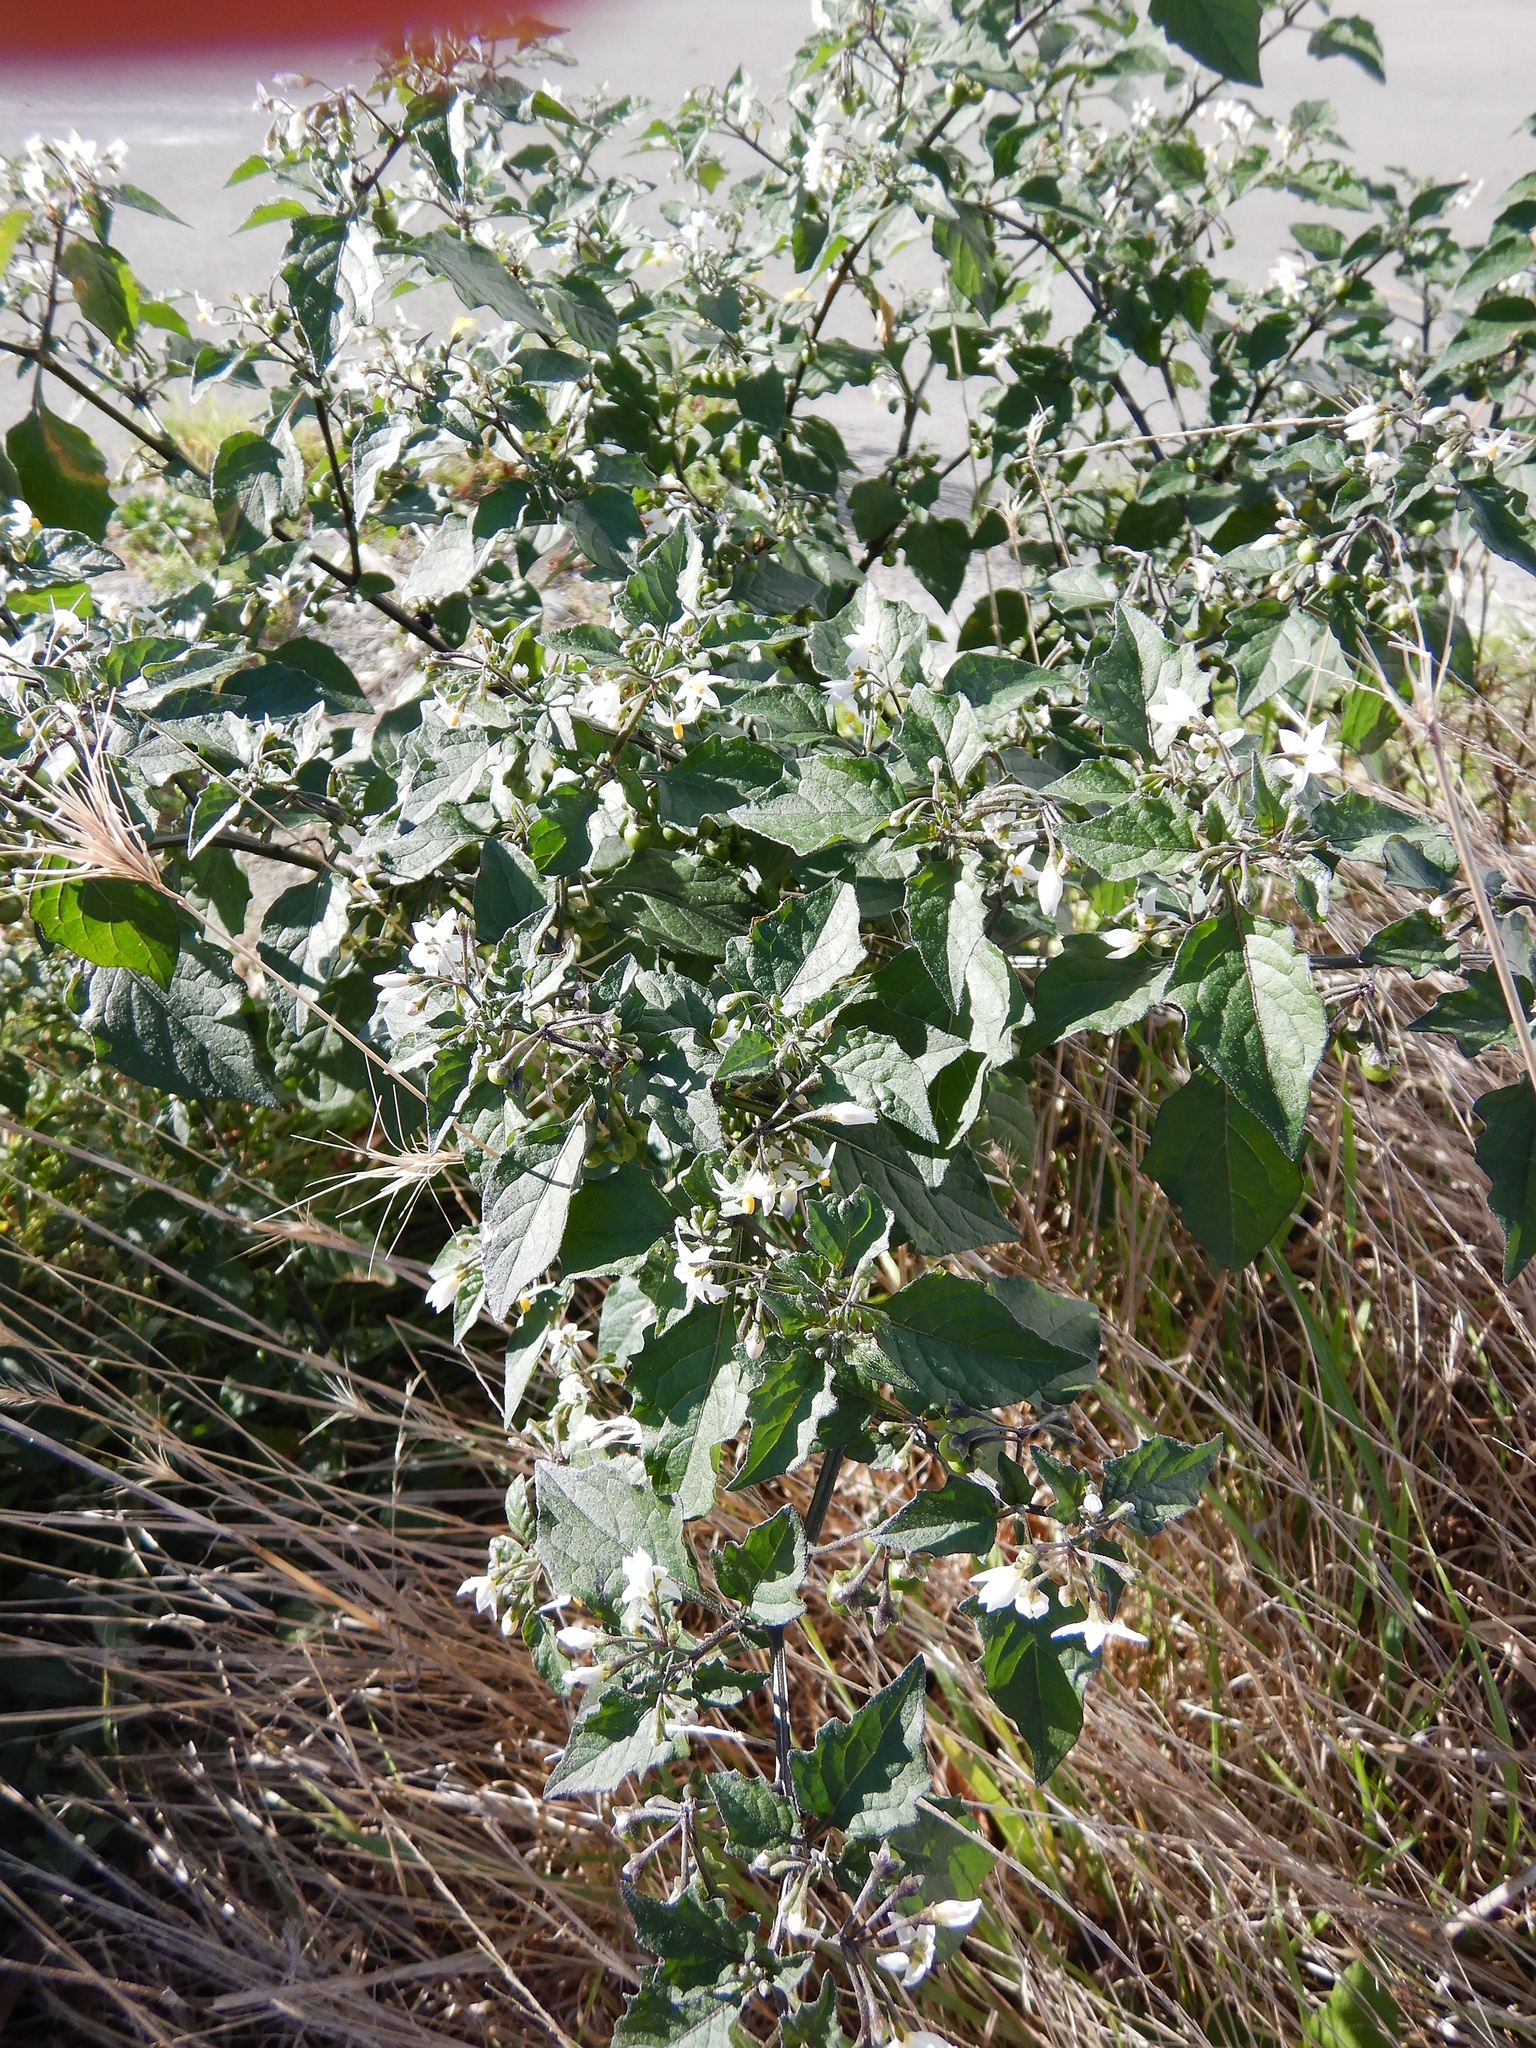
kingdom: Plantae
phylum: Tracheophyta
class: Magnoliopsida
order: Solanales
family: Solanaceae
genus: Solanum
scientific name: Solanum nigrum
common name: Black nightshade
